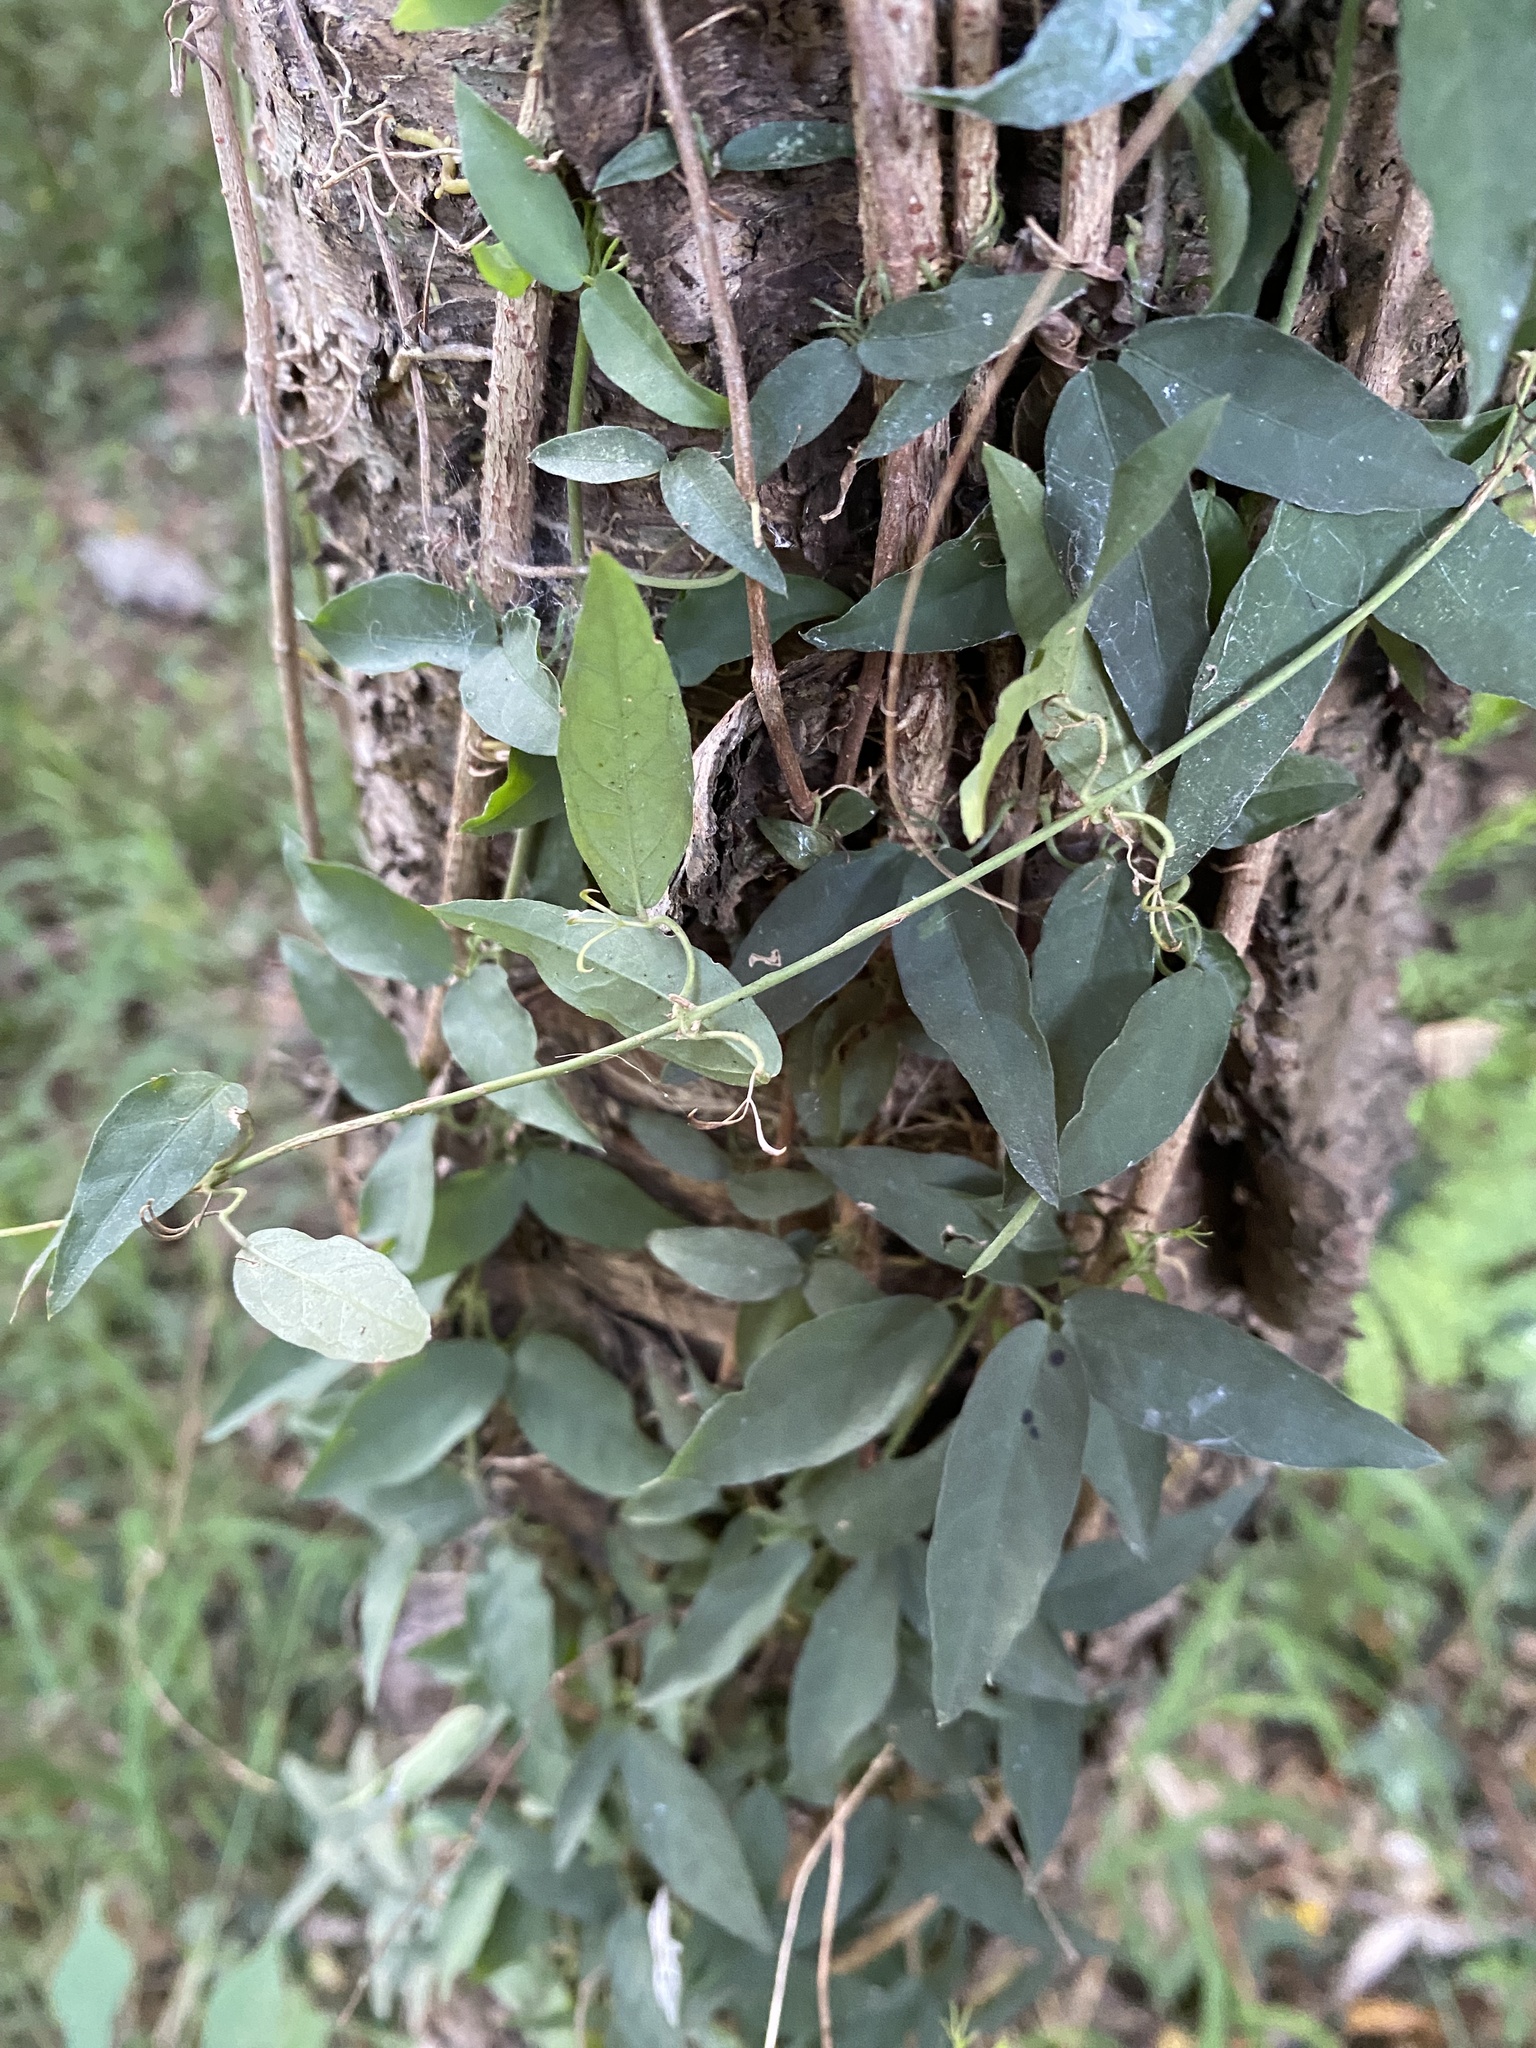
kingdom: Plantae
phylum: Tracheophyta
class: Magnoliopsida
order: Lamiales
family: Bignoniaceae
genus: Dolichandra
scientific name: Dolichandra unguis-cati
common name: Catclaw vine
